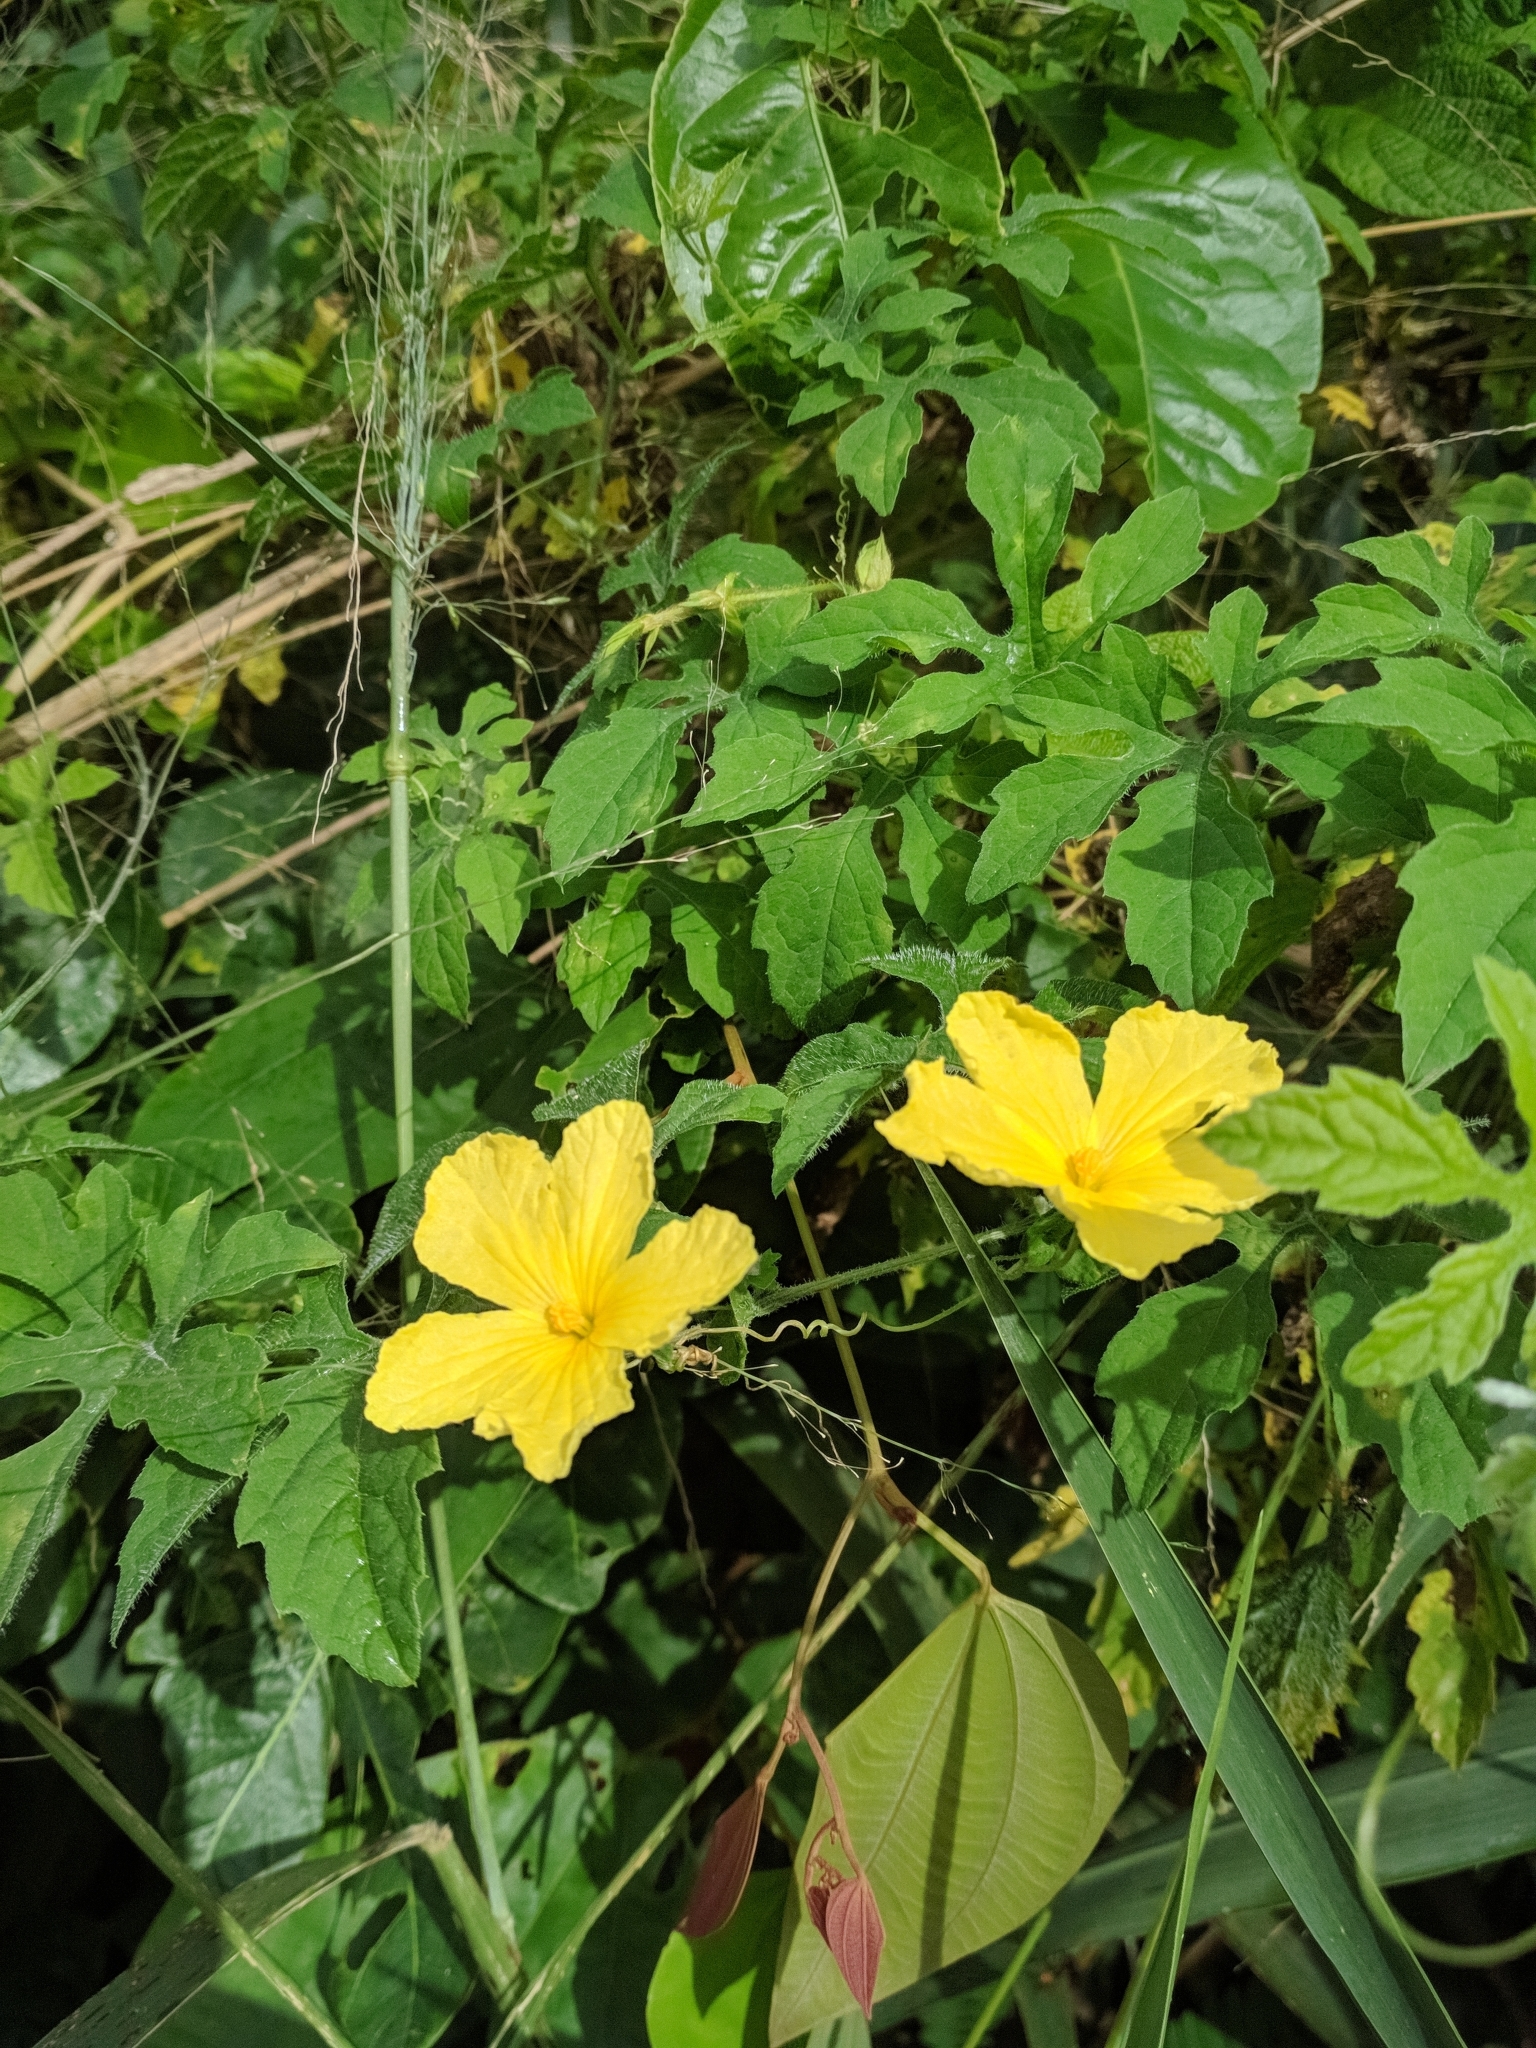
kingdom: Plantae
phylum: Tracheophyta
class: Magnoliopsida
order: Cucurbitales
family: Cucurbitaceae
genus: Momordica
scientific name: Momordica charantia
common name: Balsampear
